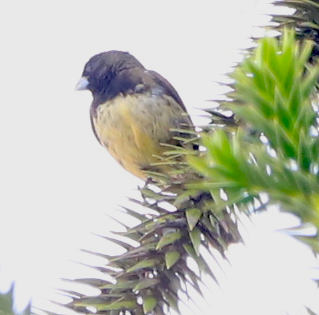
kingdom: Animalia
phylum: Chordata
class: Aves
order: Passeriformes
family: Thraupidae
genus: Sporophila
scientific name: Sporophila nigricollis
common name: Yellow-bellied seedeater
